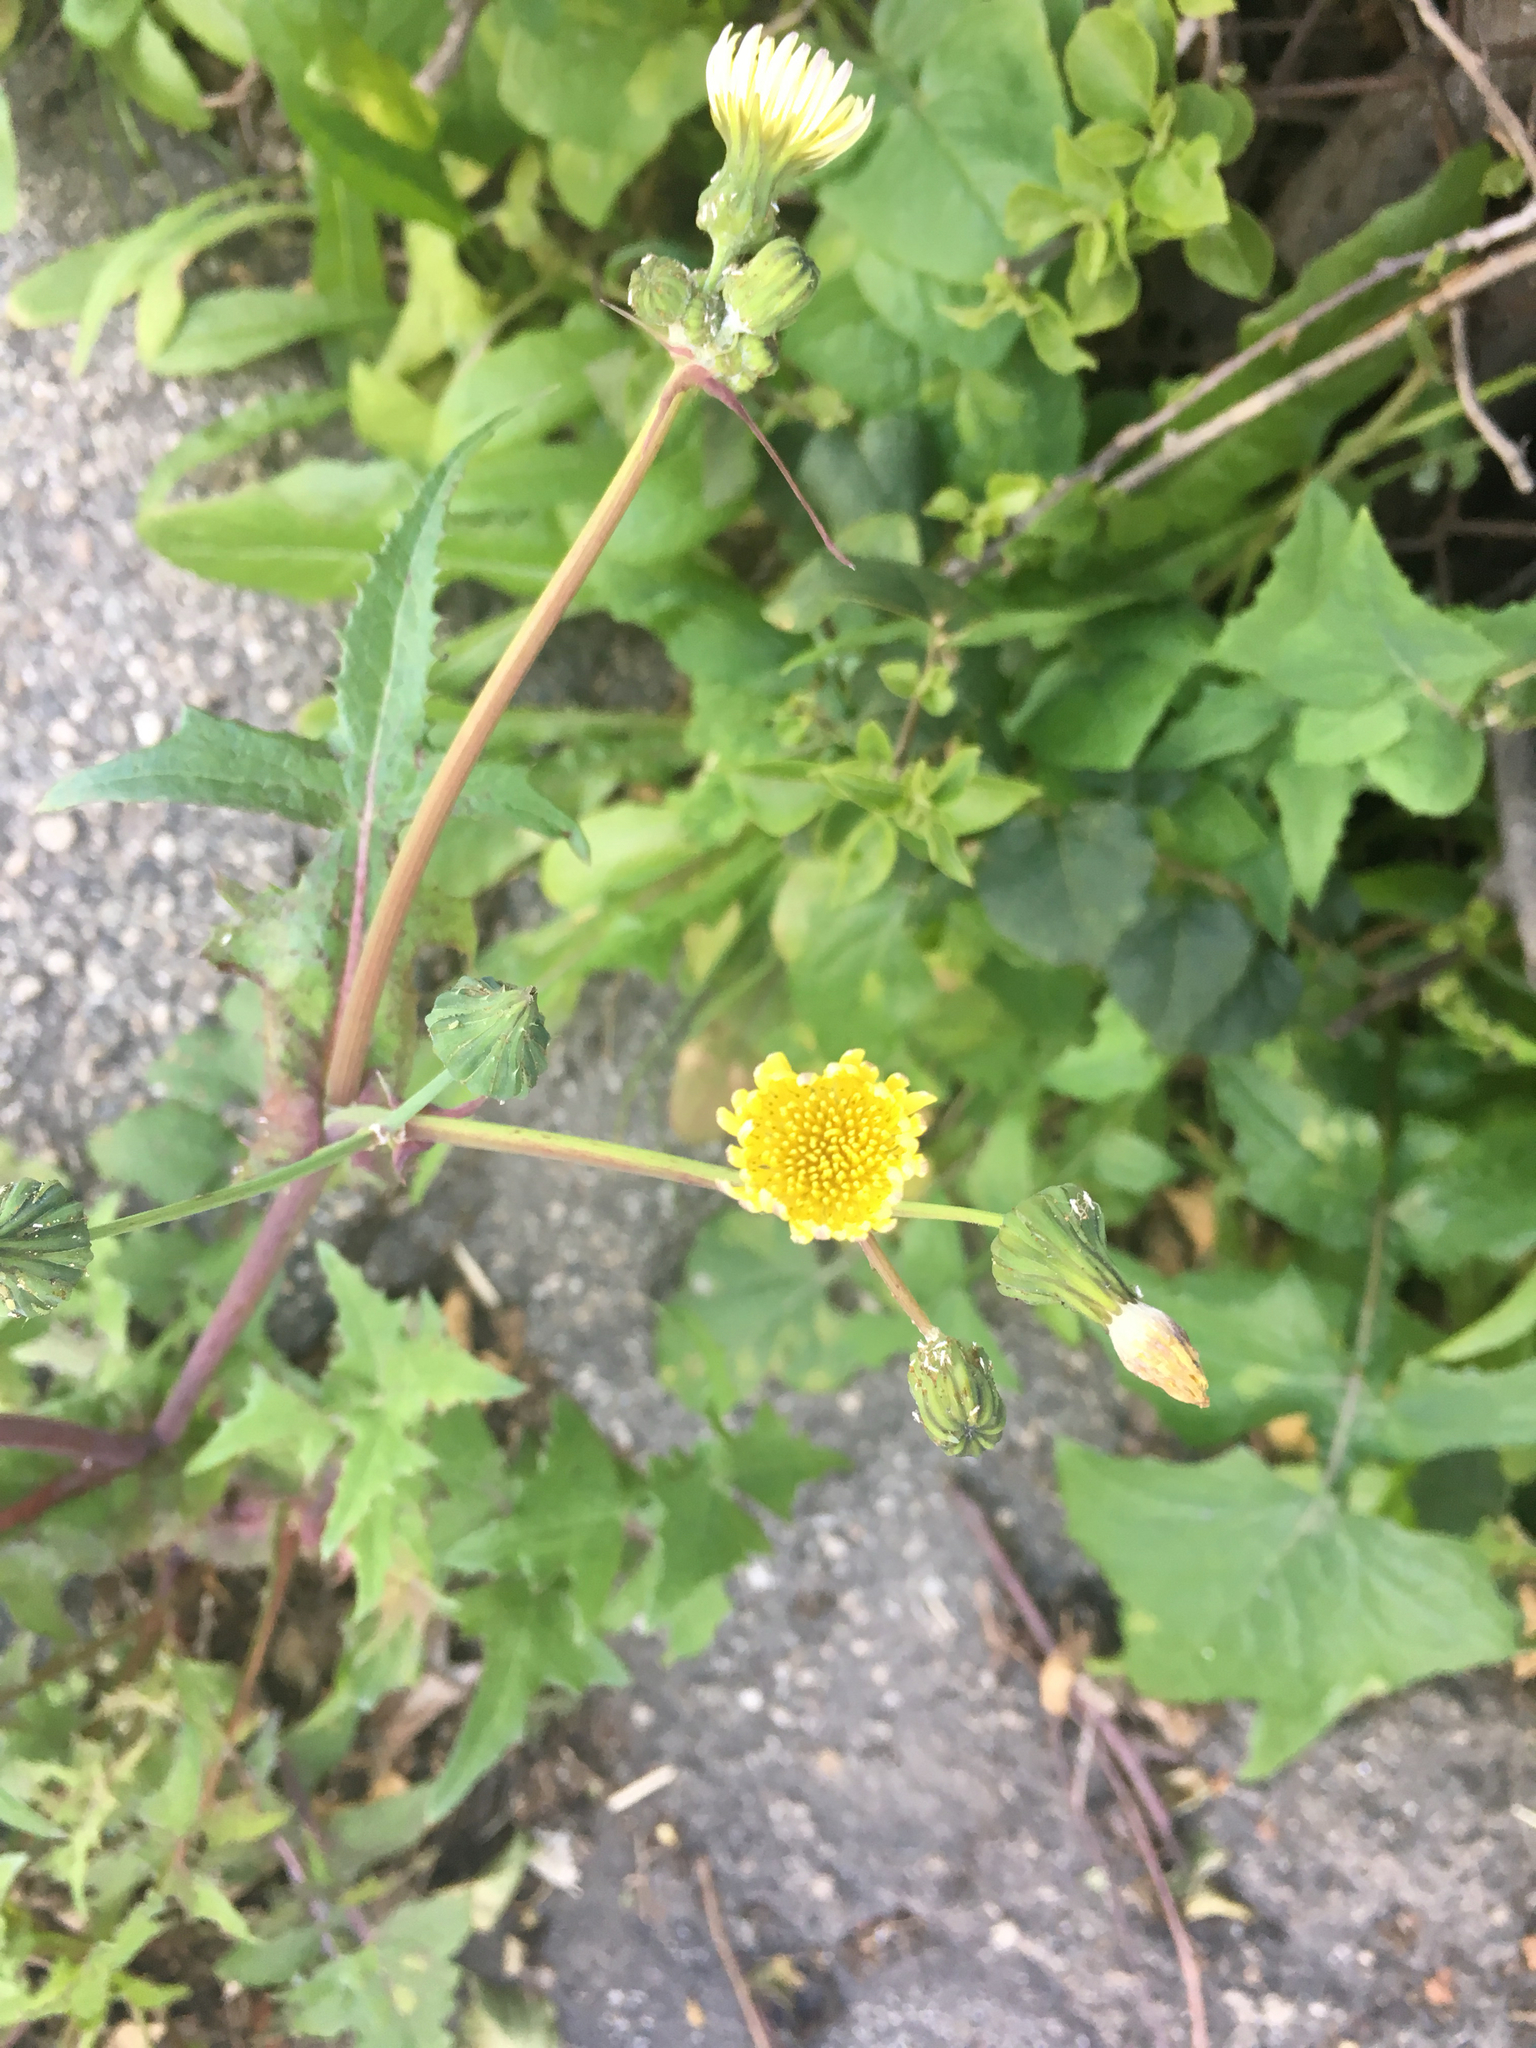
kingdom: Plantae
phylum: Tracheophyta
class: Magnoliopsida
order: Asterales
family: Asteraceae
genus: Sonchus
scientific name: Sonchus oleraceus
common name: Common sowthistle
